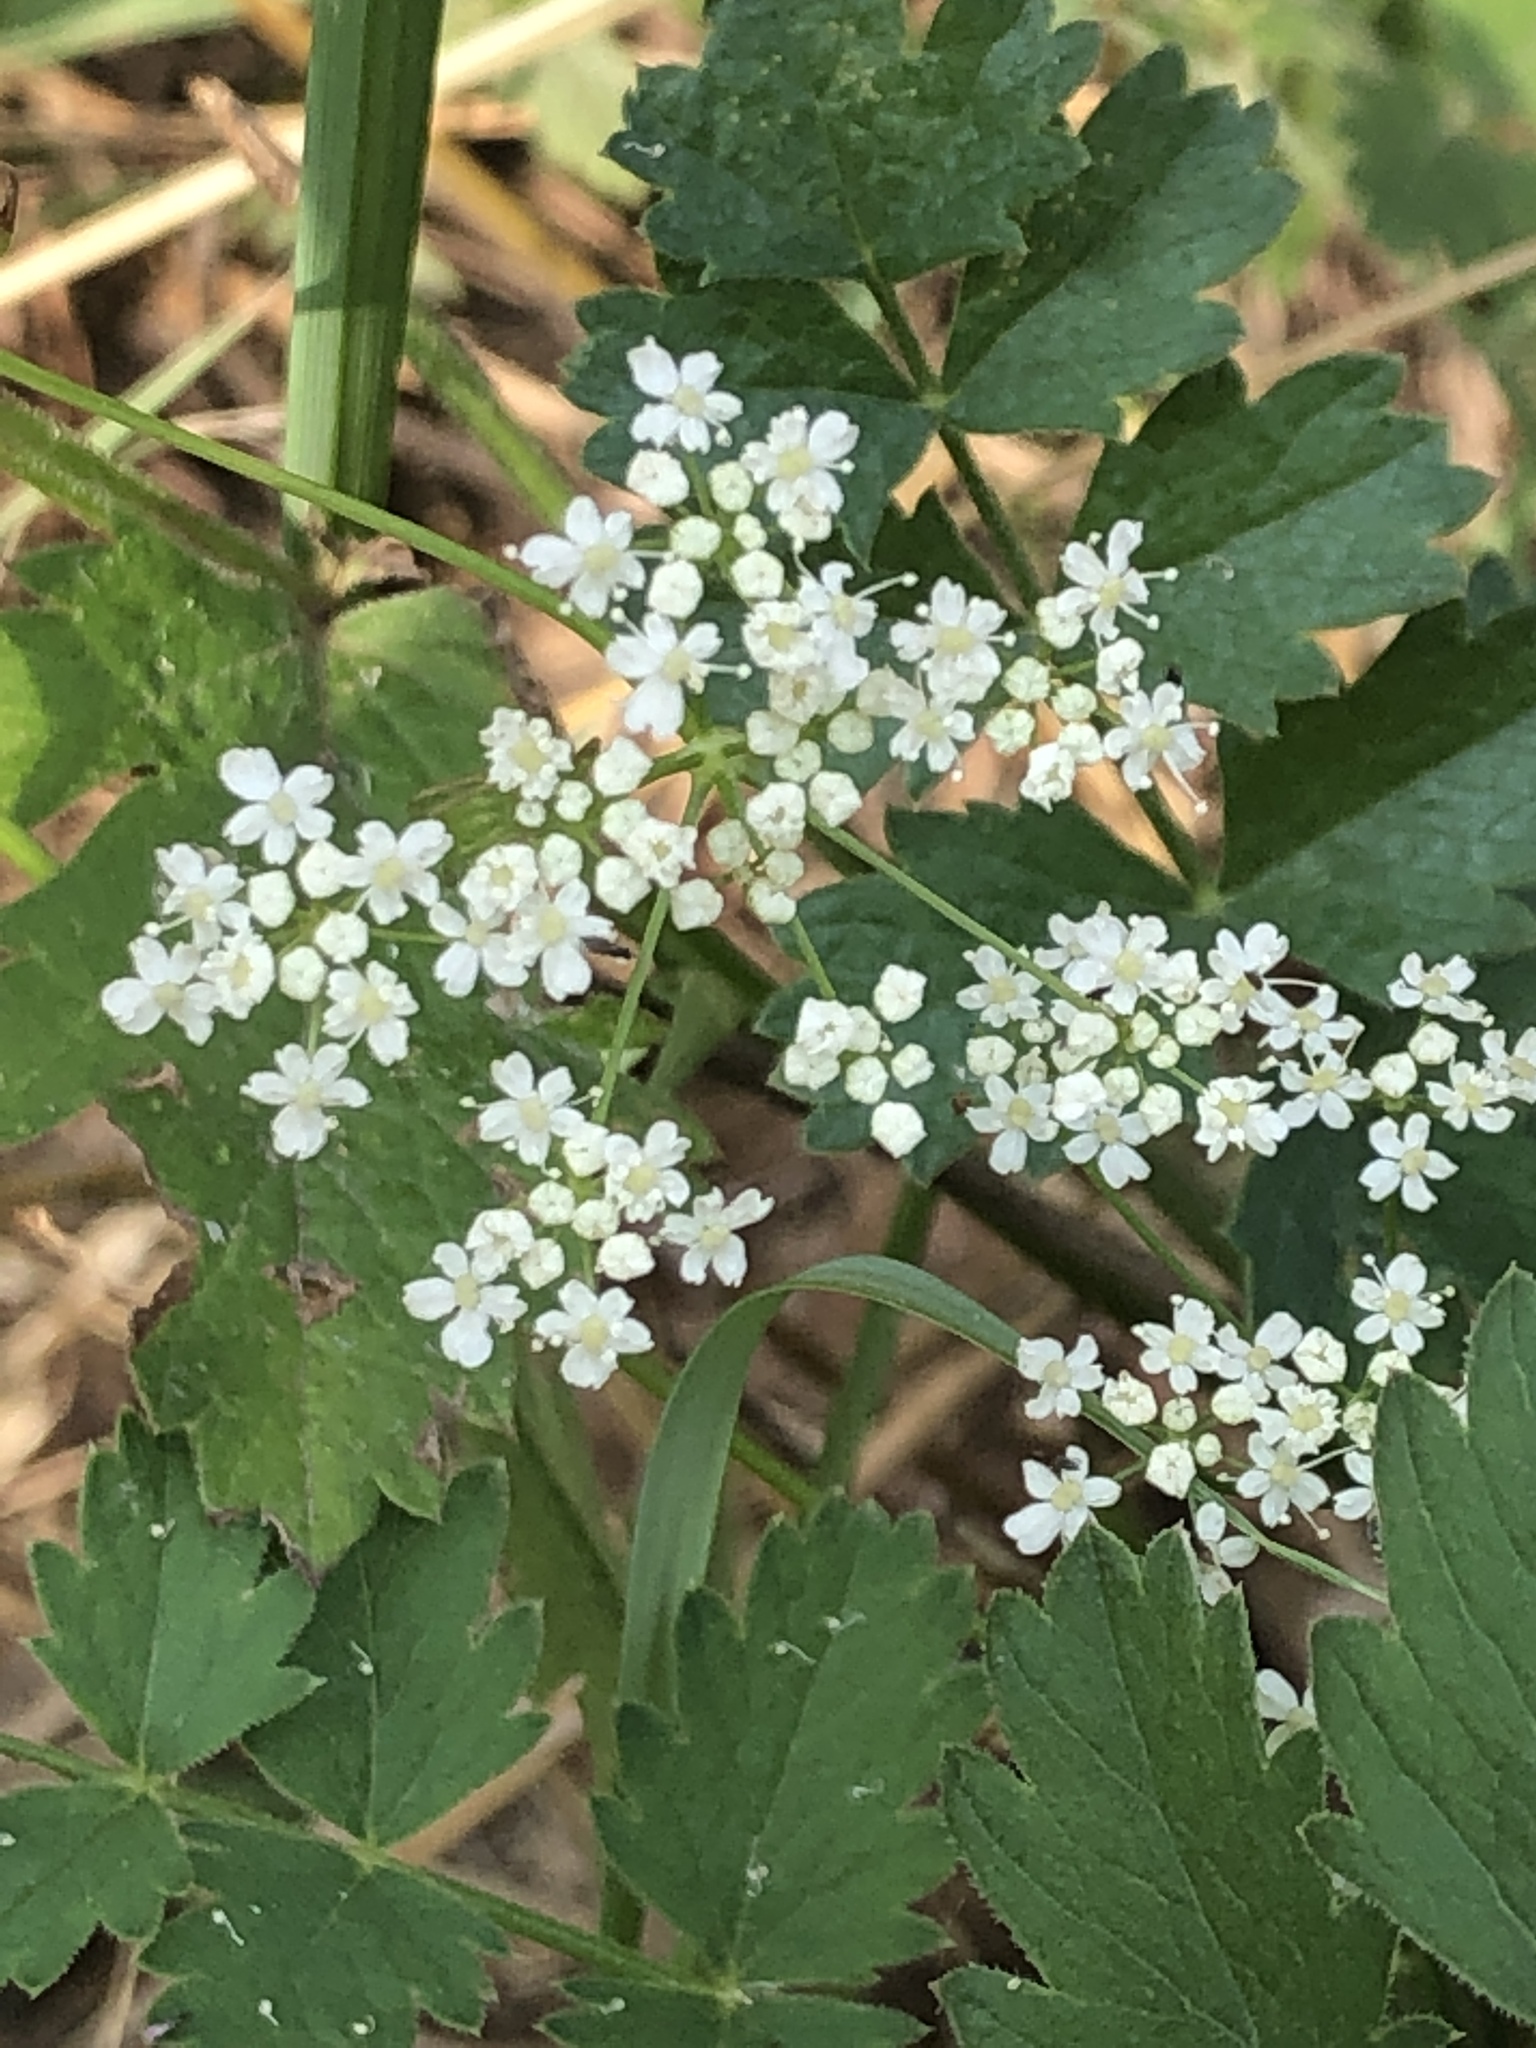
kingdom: Plantae
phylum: Tracheophyta
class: Magnoliopsida
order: Apiales
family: Apiaceae
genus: Pimpinella
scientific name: Pimpinella saxifraga
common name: Burnet-saxifrage
